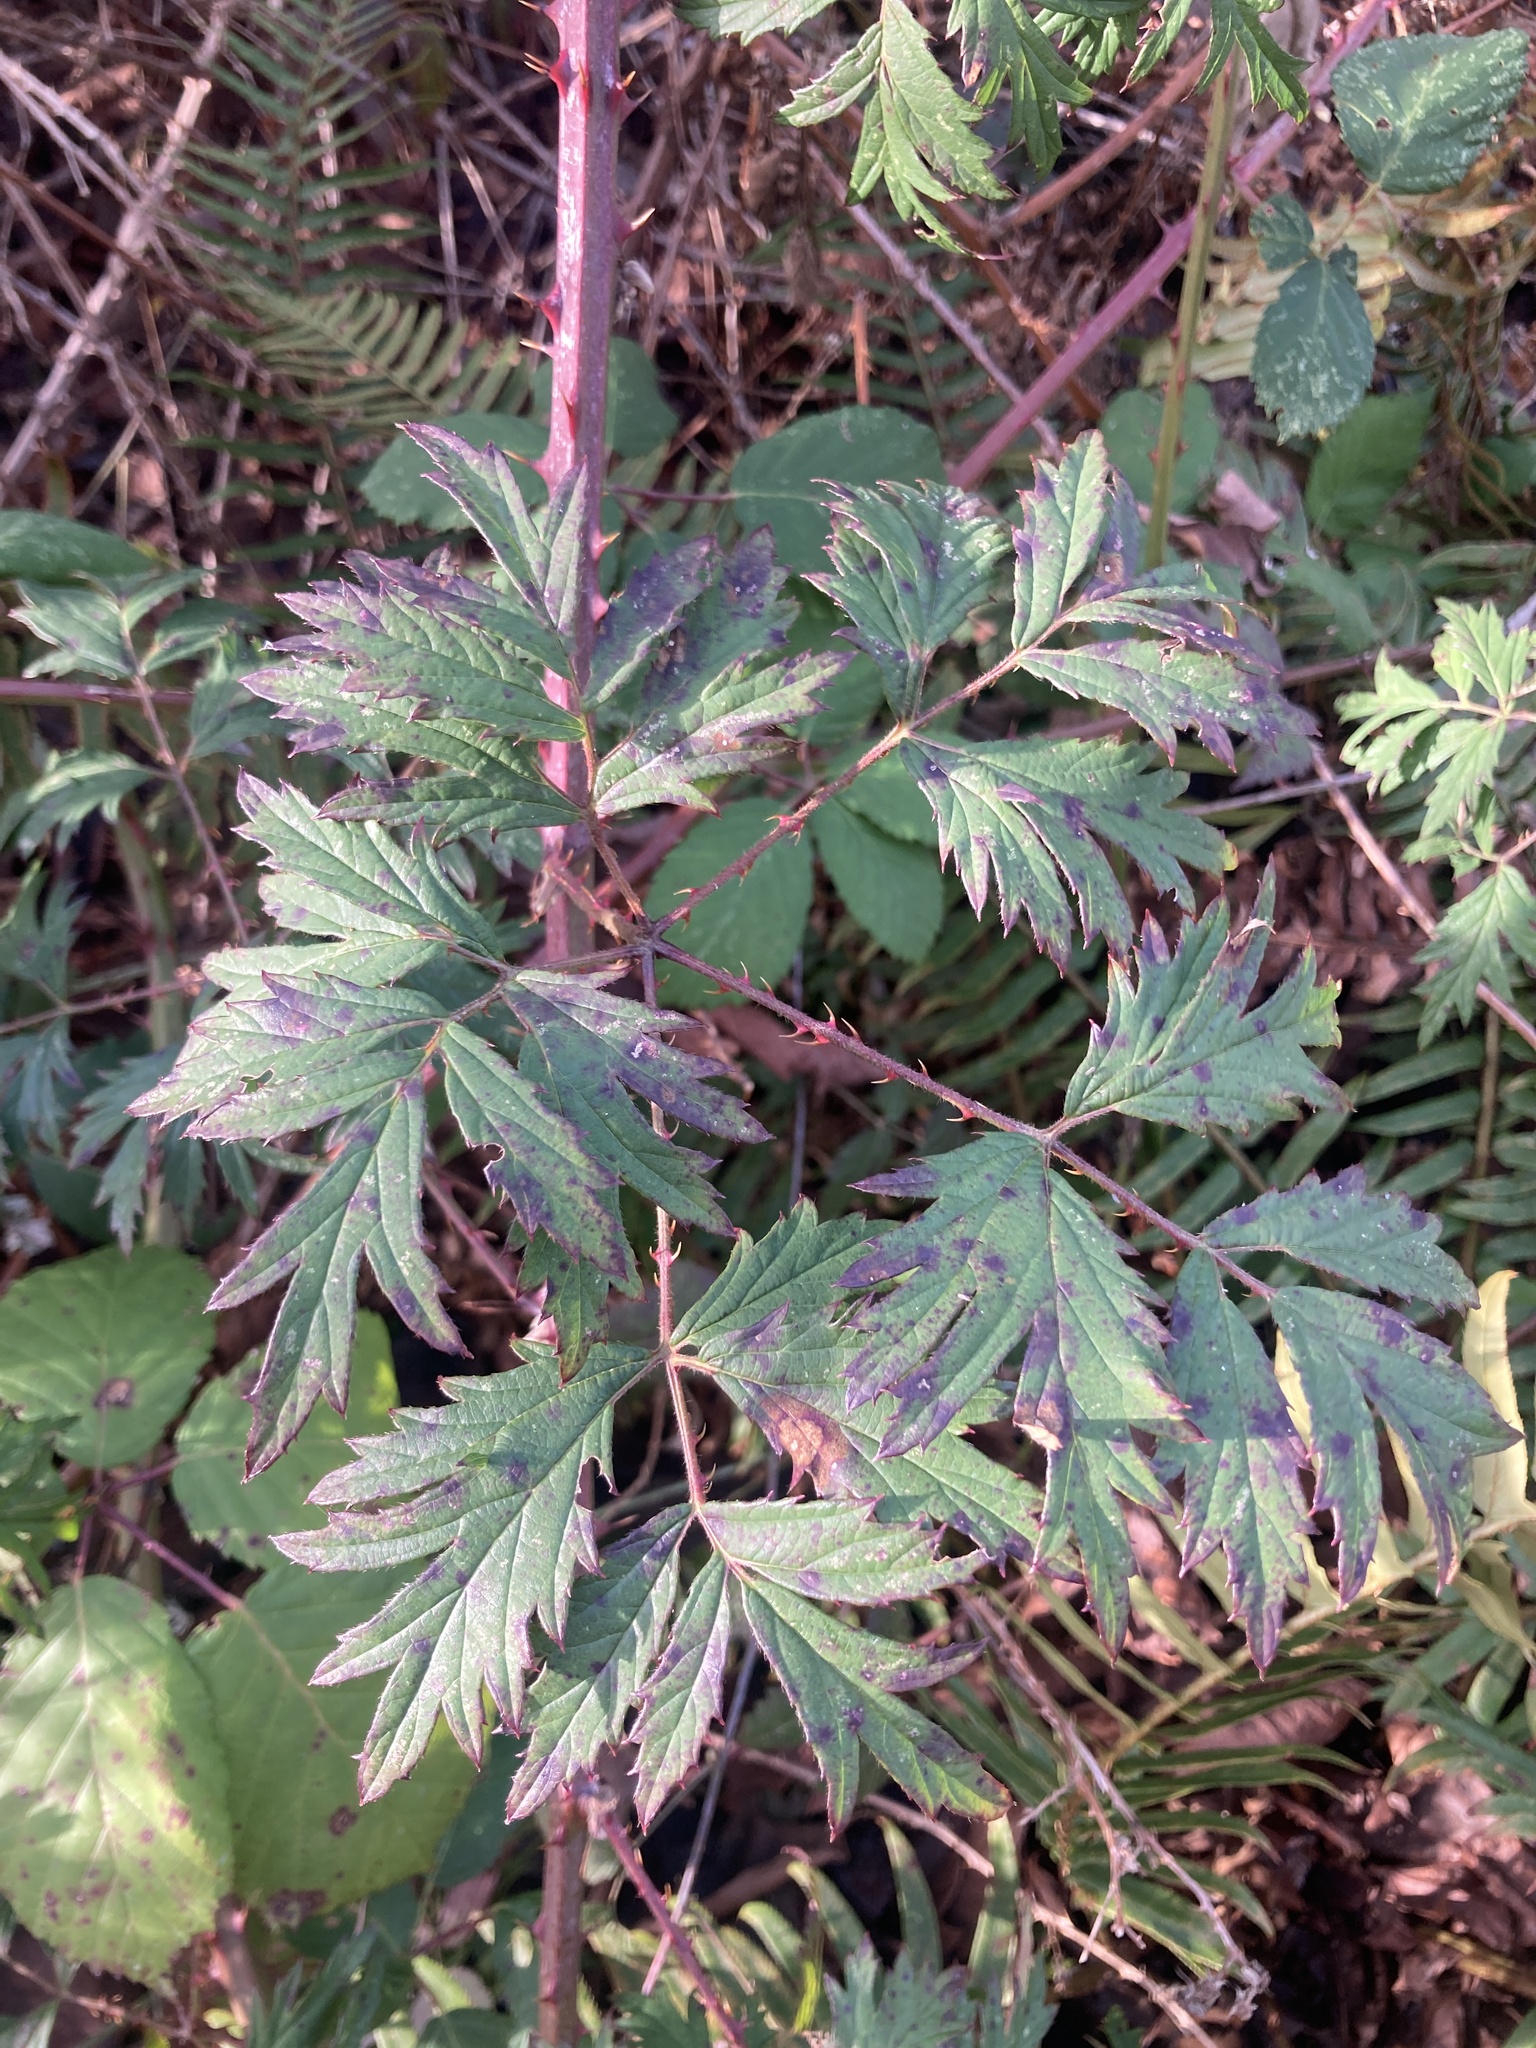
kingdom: Plantae
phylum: Tracheophyta
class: Magnoliopsida
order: Rosales
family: Rosaceae
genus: Rubus
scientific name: Rubus laciniatus
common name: Evergreen blackberry
